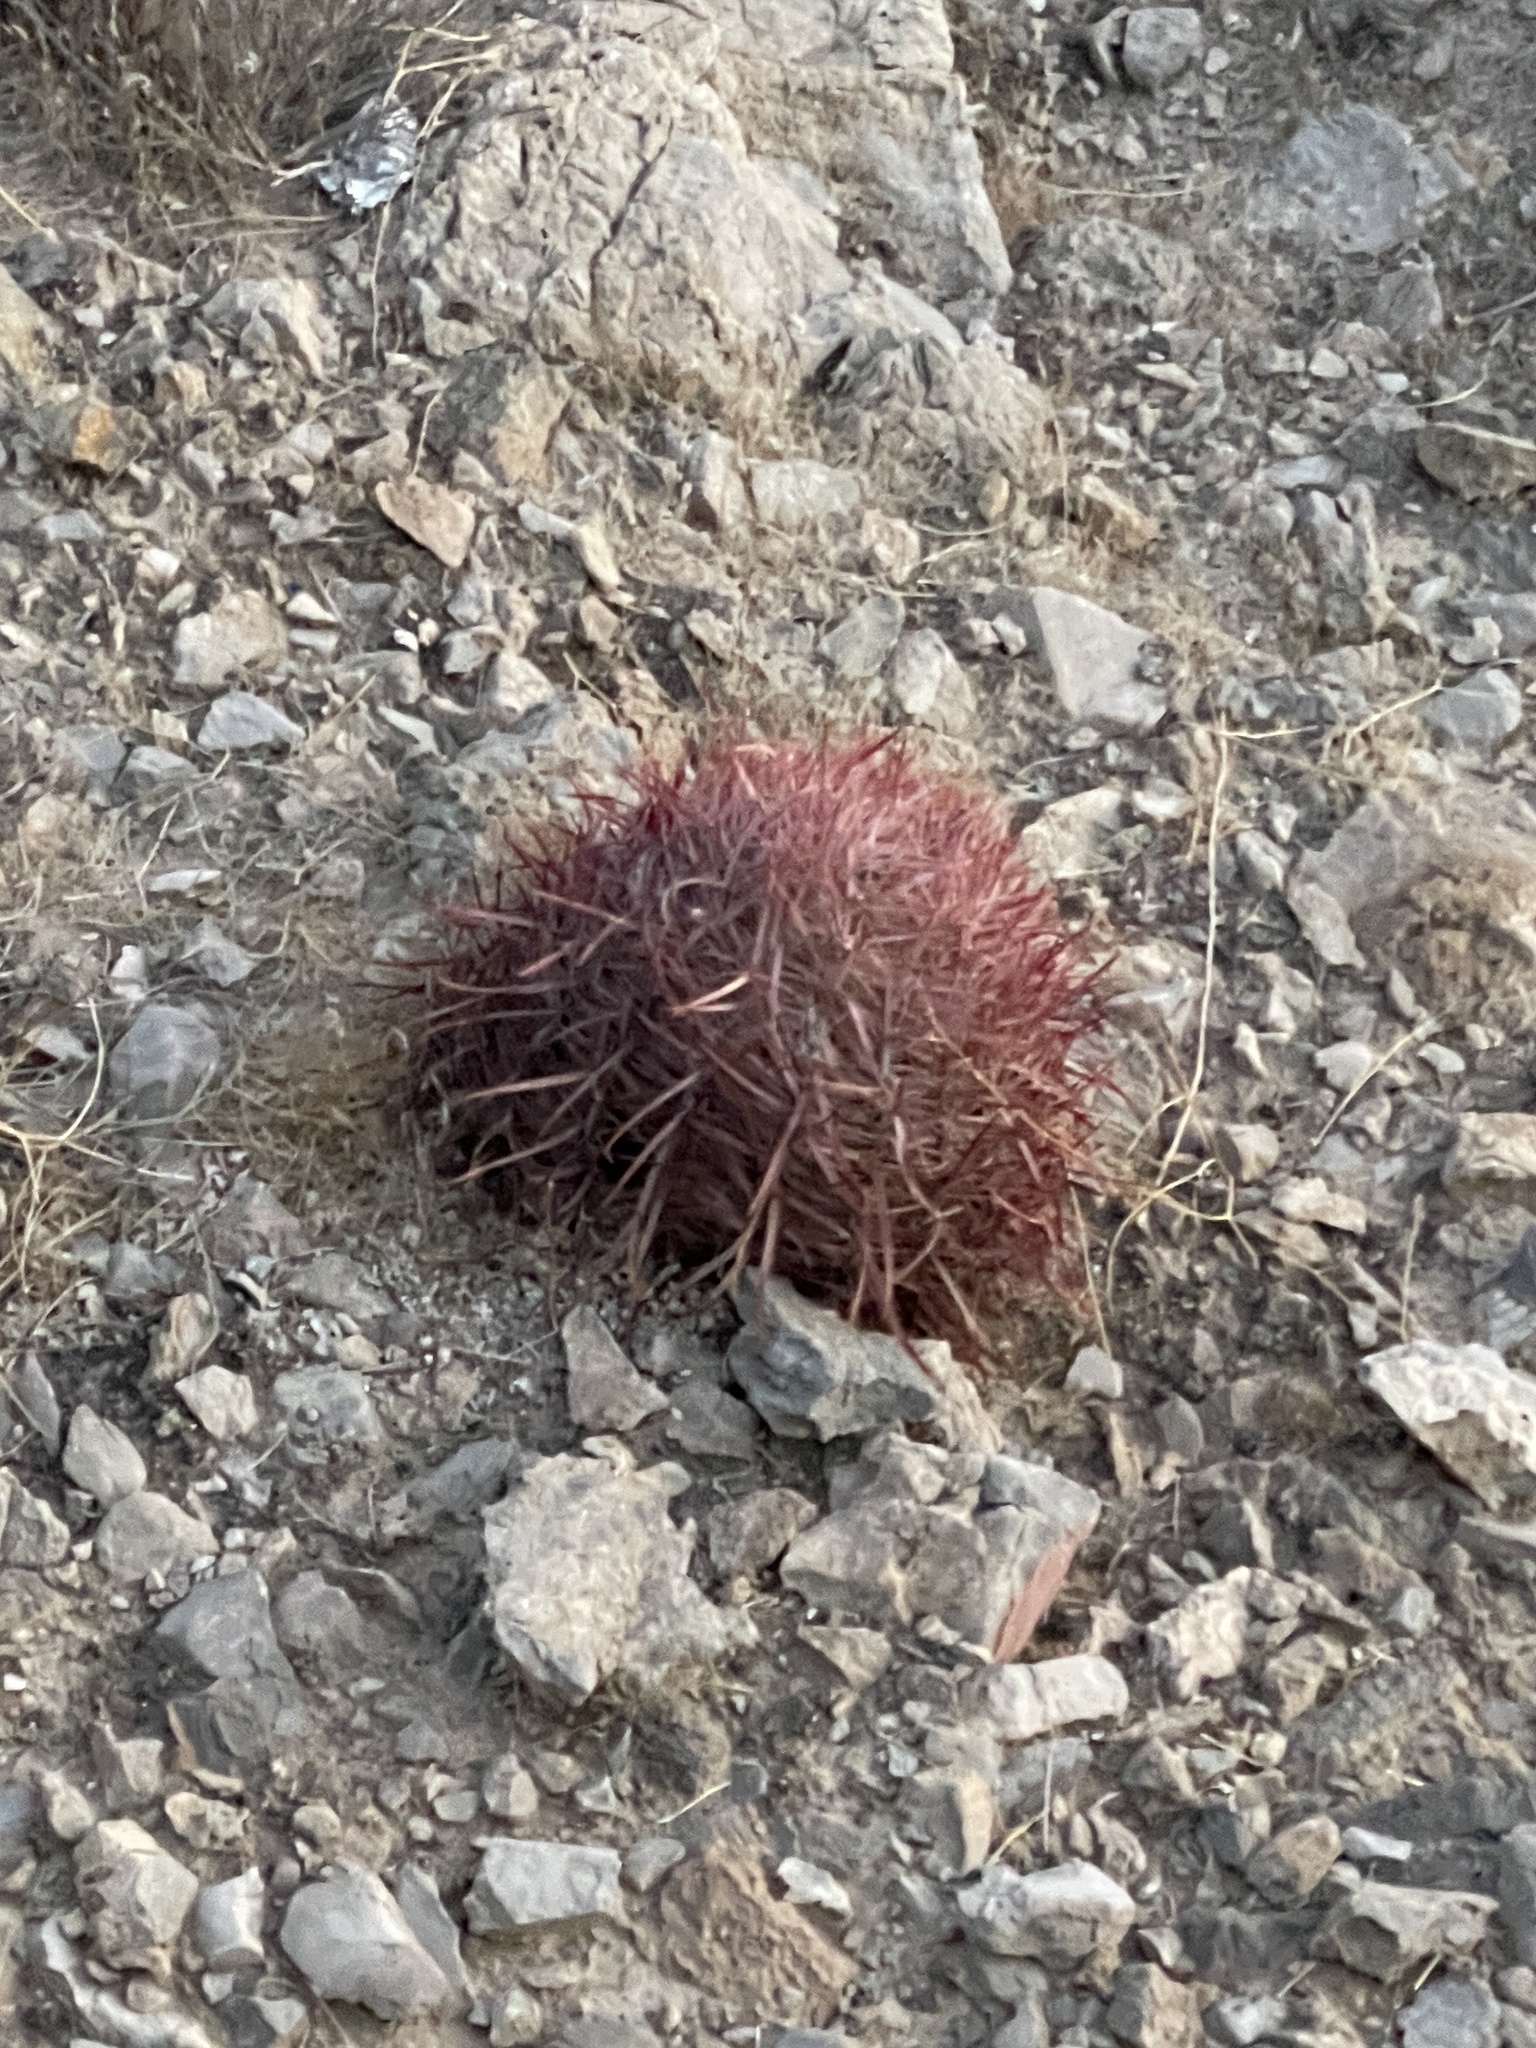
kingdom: Plantae
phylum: Tracheophyta
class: Magnoliopsida
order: Caryophyllales
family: Cactaceae
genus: Ferocactus
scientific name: Ferocactus cylindraceus
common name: California barrel cactus
